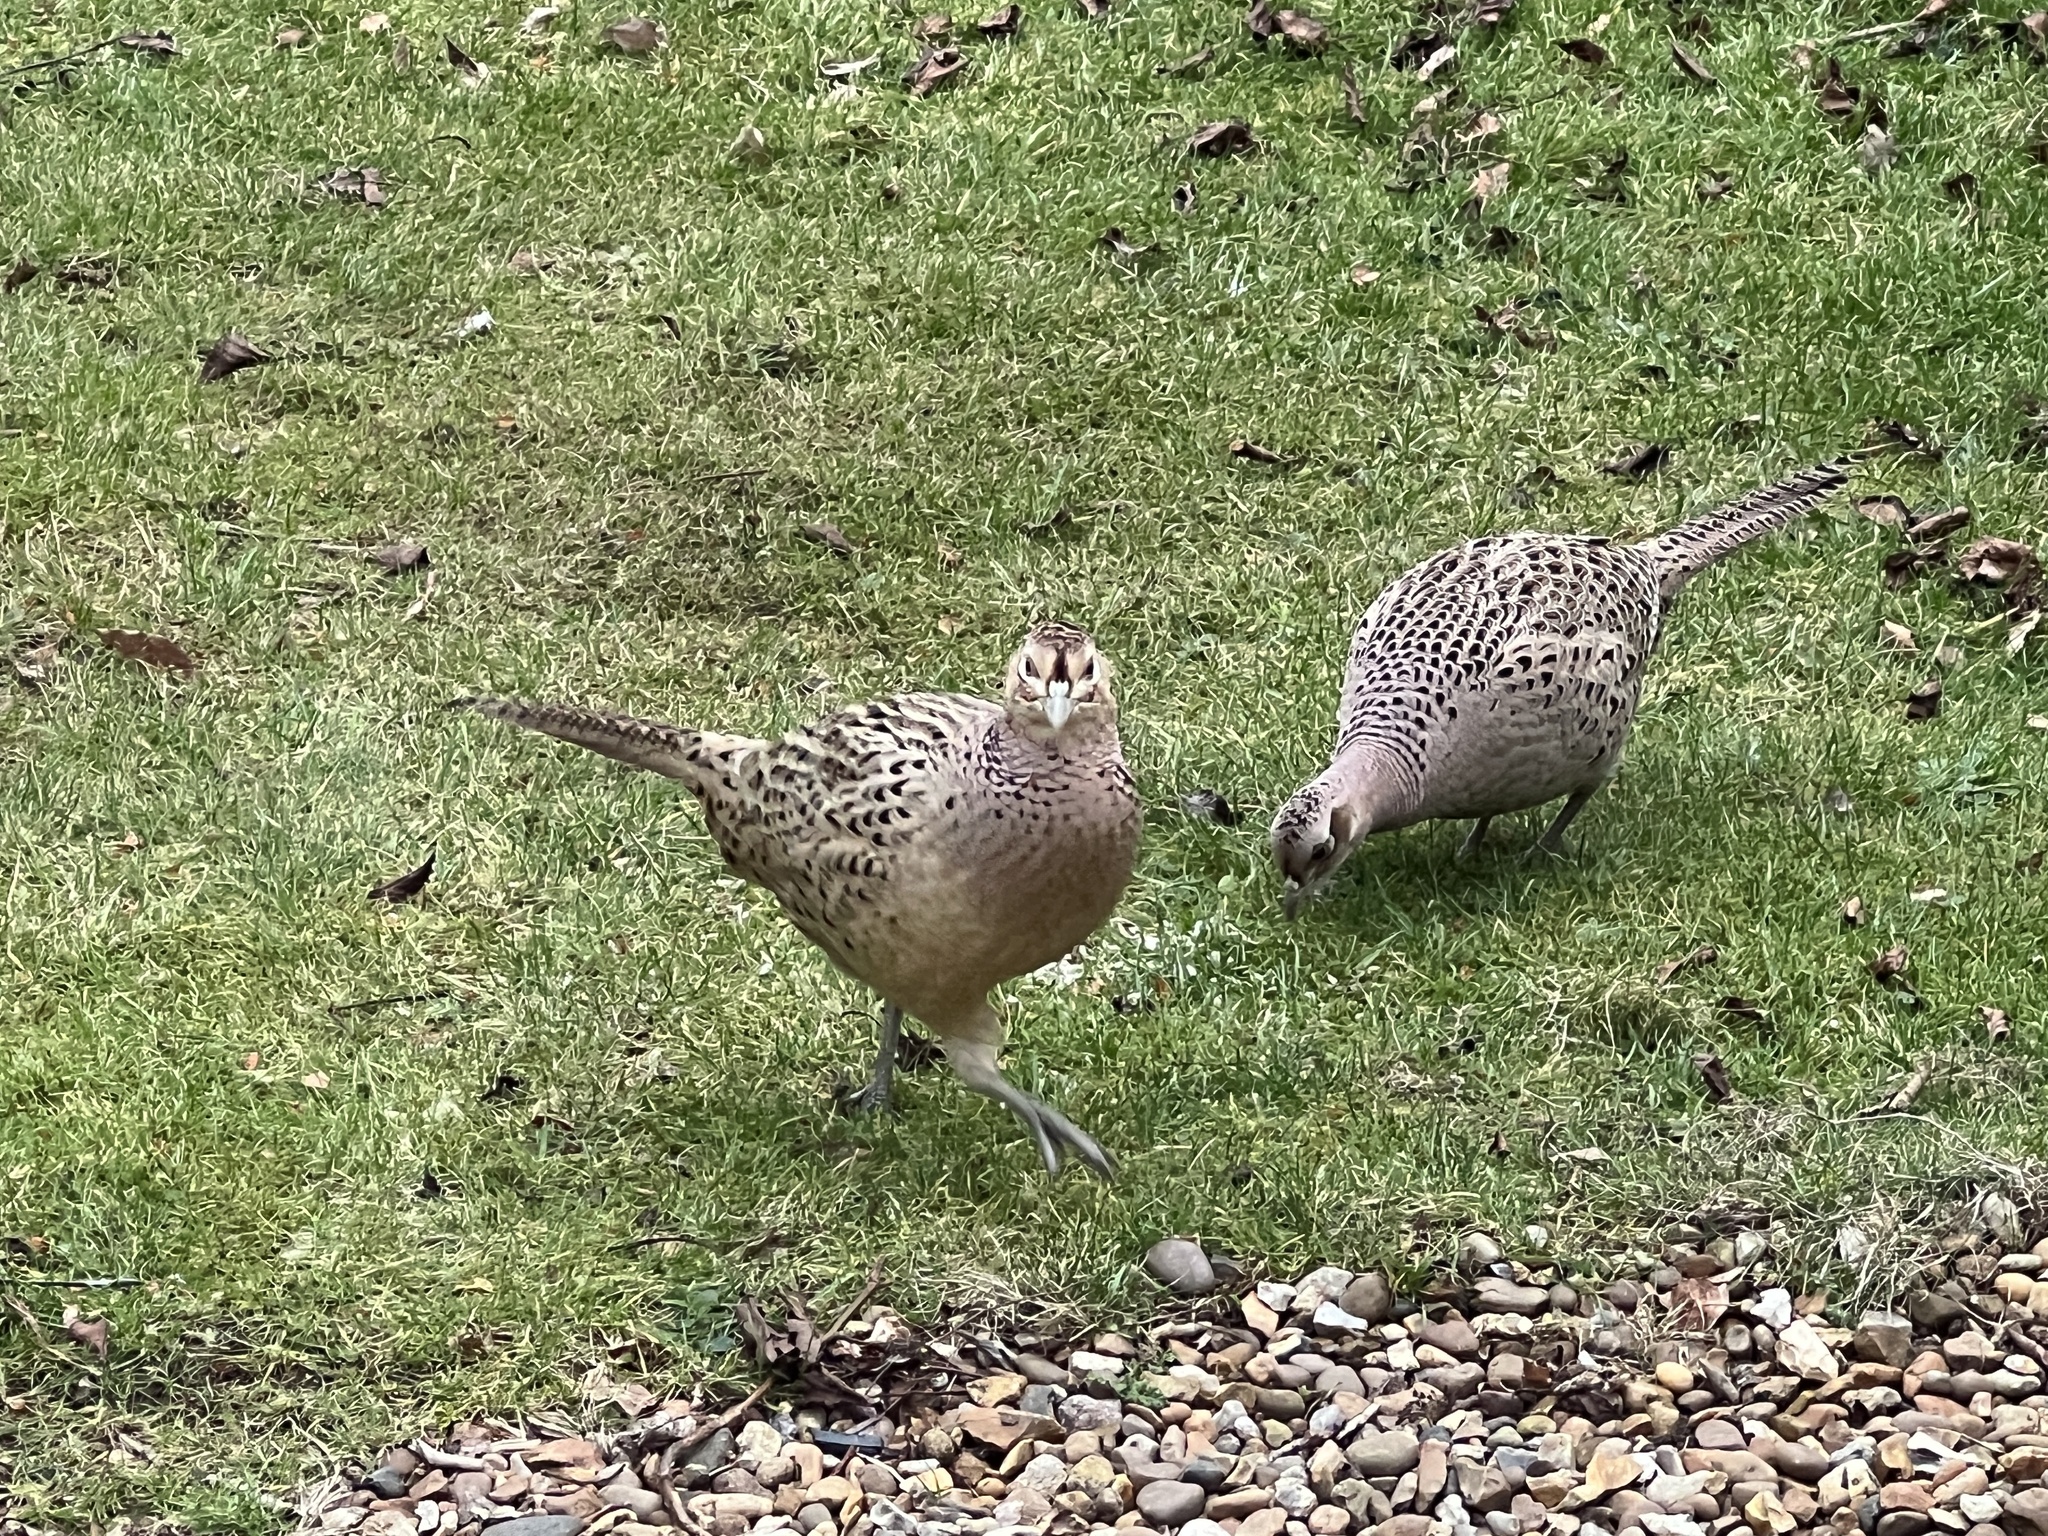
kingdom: Animalia
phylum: Chordata
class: Aves
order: Galliformes
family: Phasianidae
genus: Phasianus
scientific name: Phasianus colchicus
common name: Common pheasant
